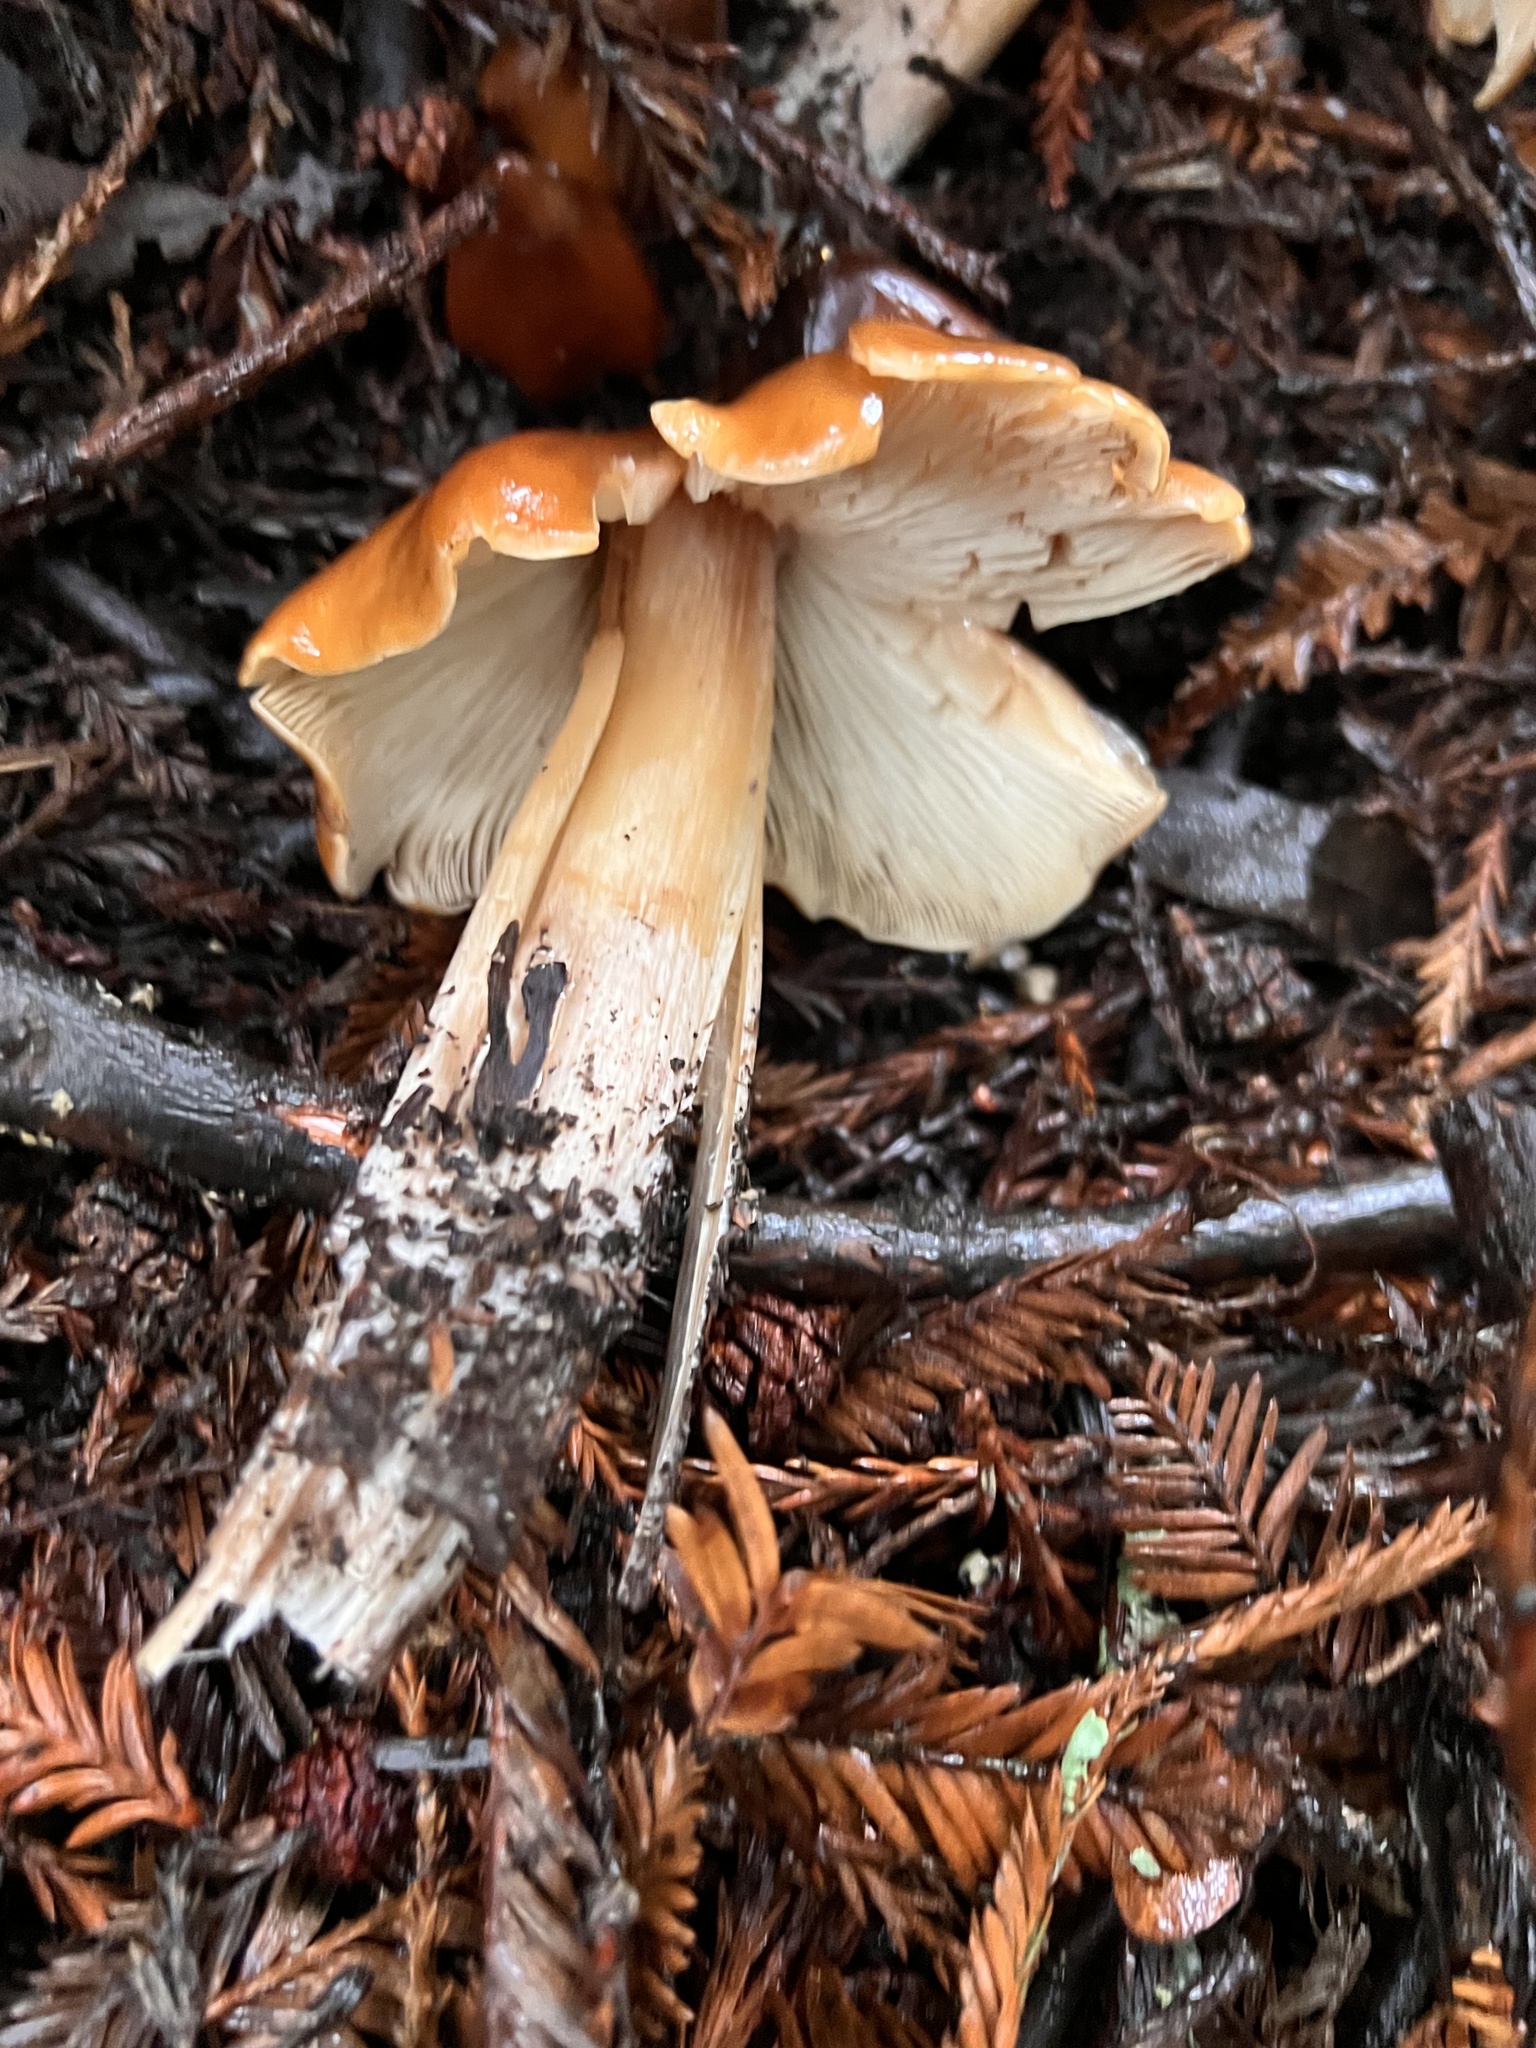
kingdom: Fungi
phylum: Basidiomycota
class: Agaricomycetes
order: Agaricales
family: Tricholomataceae
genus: Caulorhiza
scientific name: Caulorhiza umbonata
